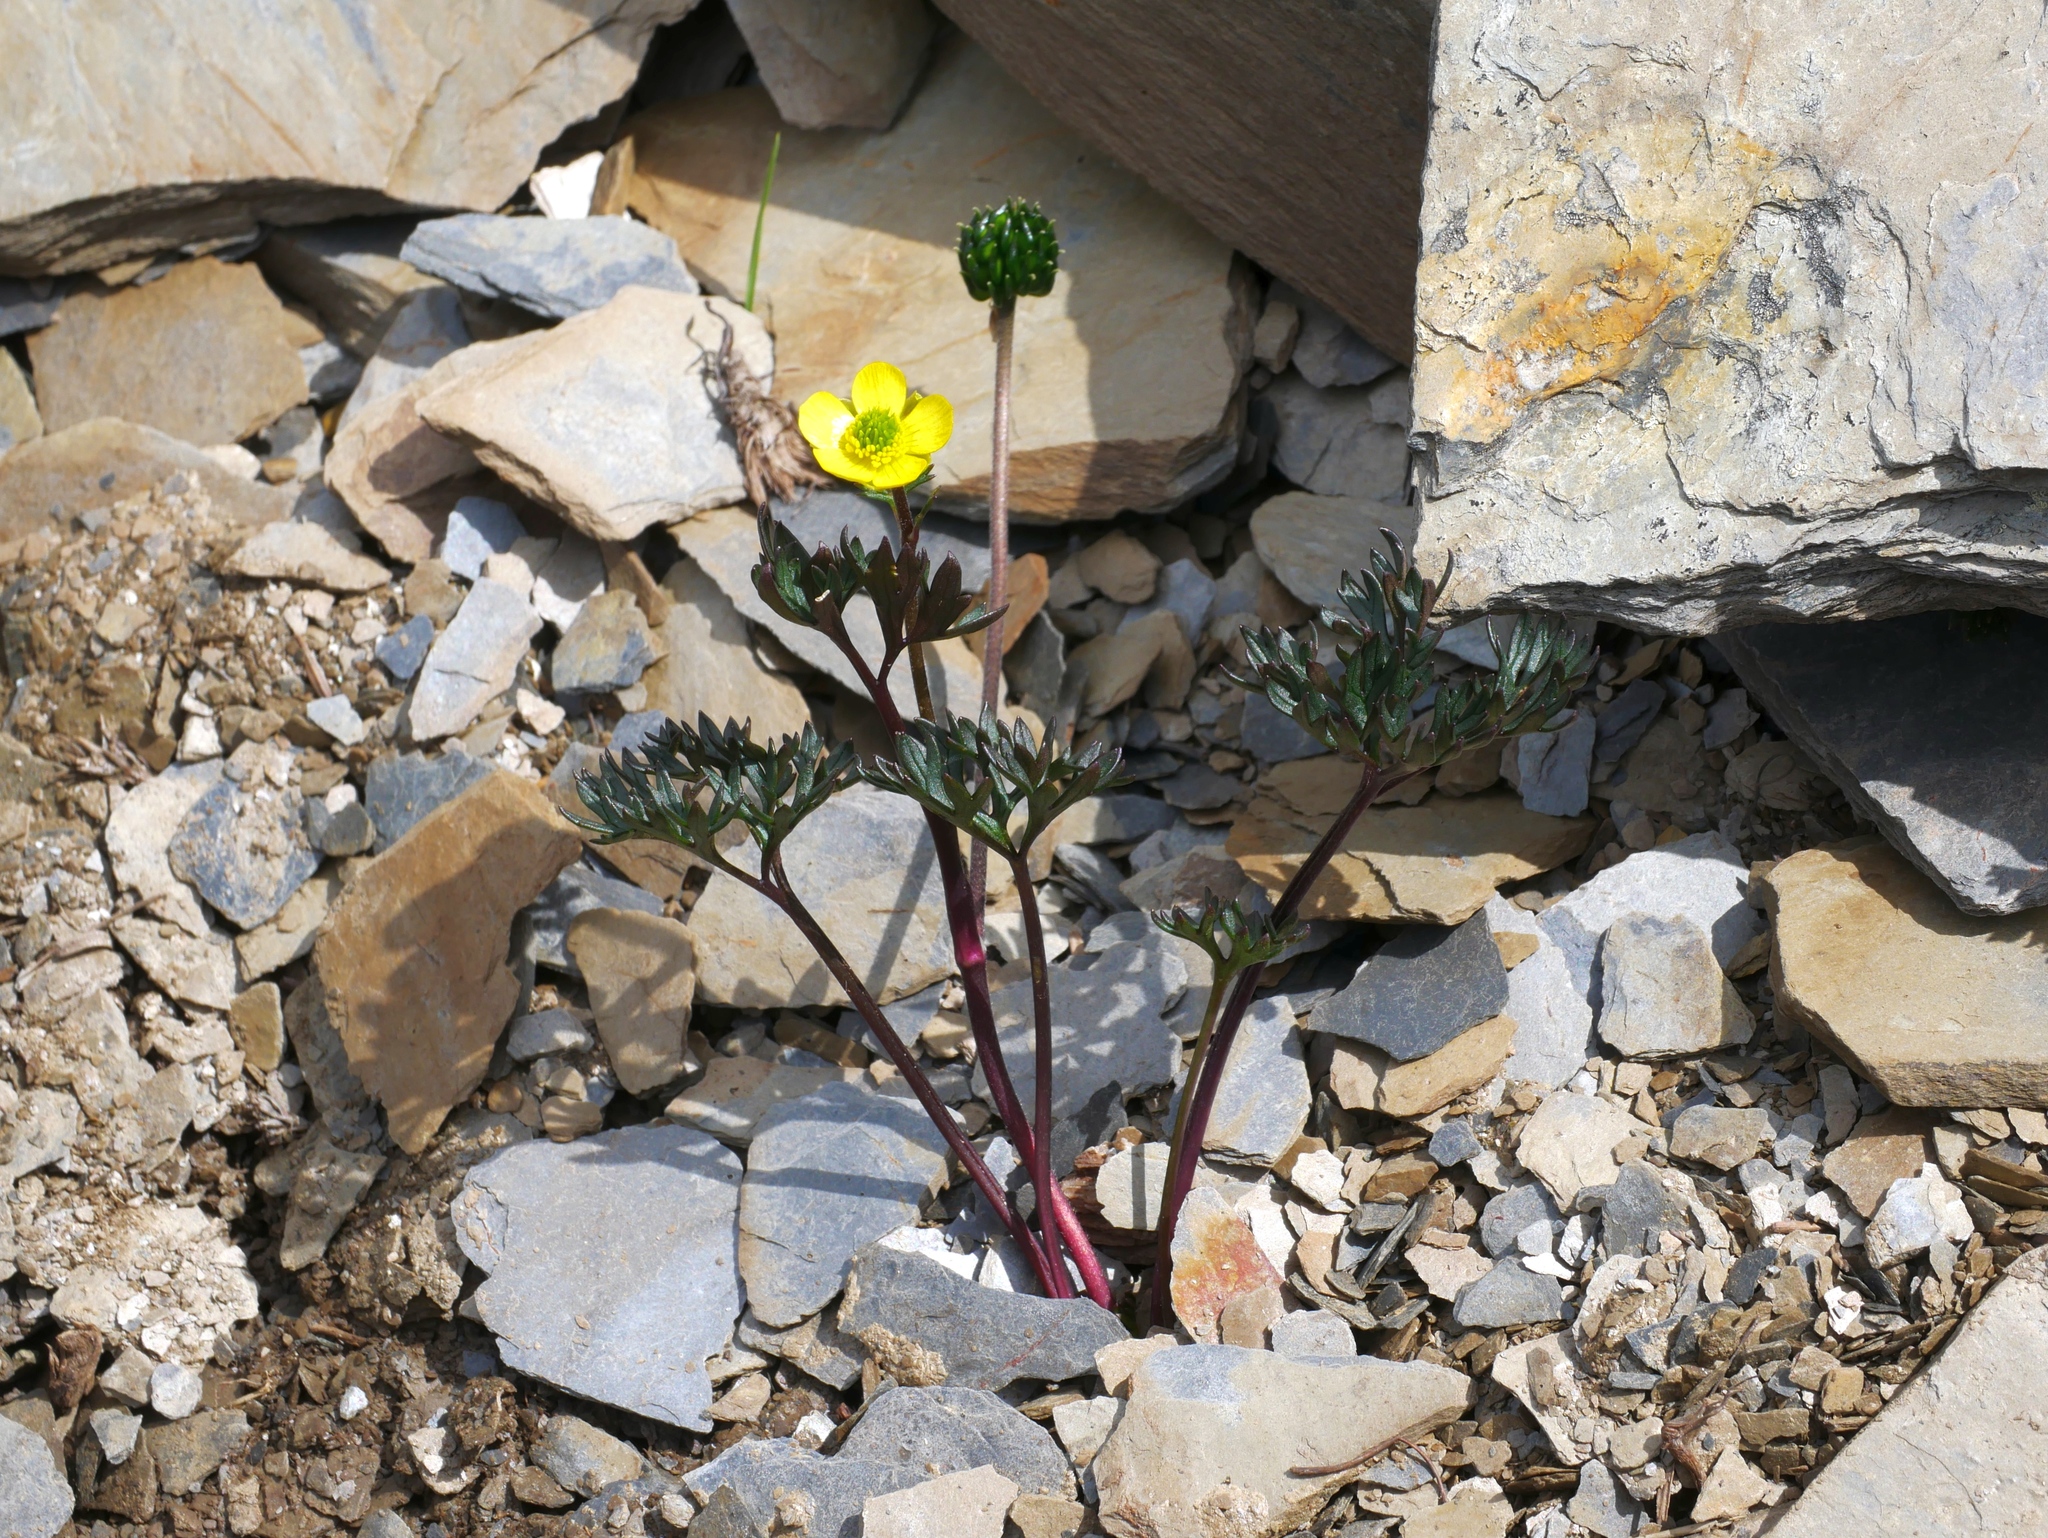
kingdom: Plantae
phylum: Tracheophyta
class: Magnoliopsida
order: Ranunculales
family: Ranunculaceae
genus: Ranunculus
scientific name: Ranunculus morii
